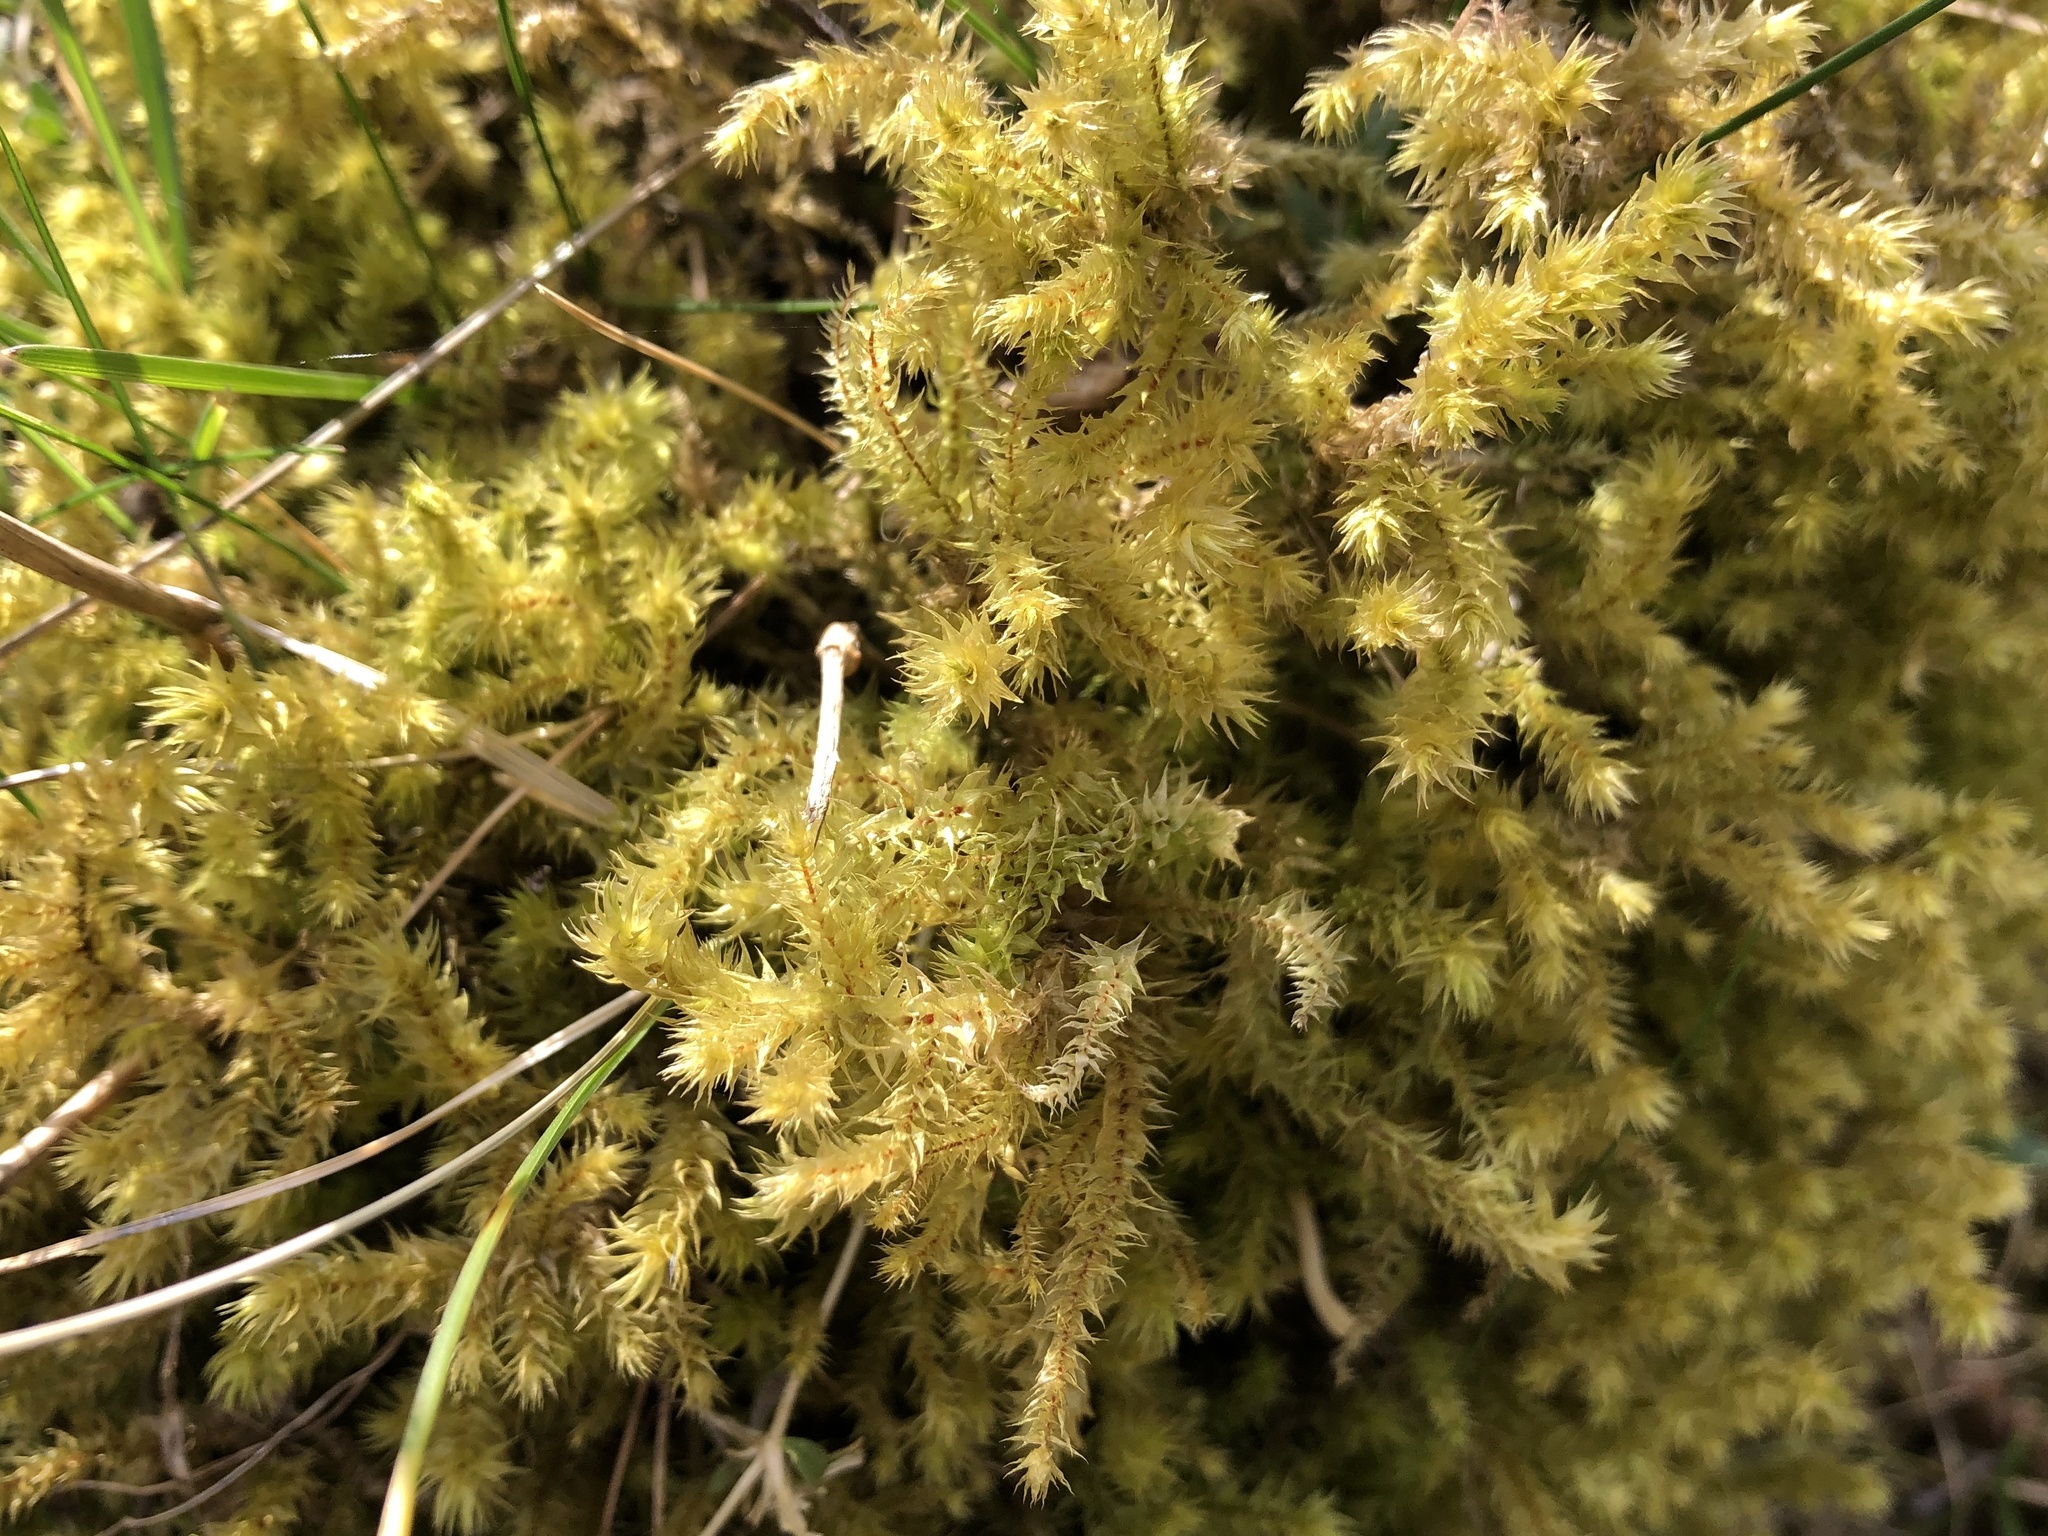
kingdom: Plantae
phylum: Bryophyta
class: Bryopsida
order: Hypnales
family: Hylocomiaceae
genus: Hylocomiadelphus
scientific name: Hylocomiadelphus triquetrus
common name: Rough goose neck moss
